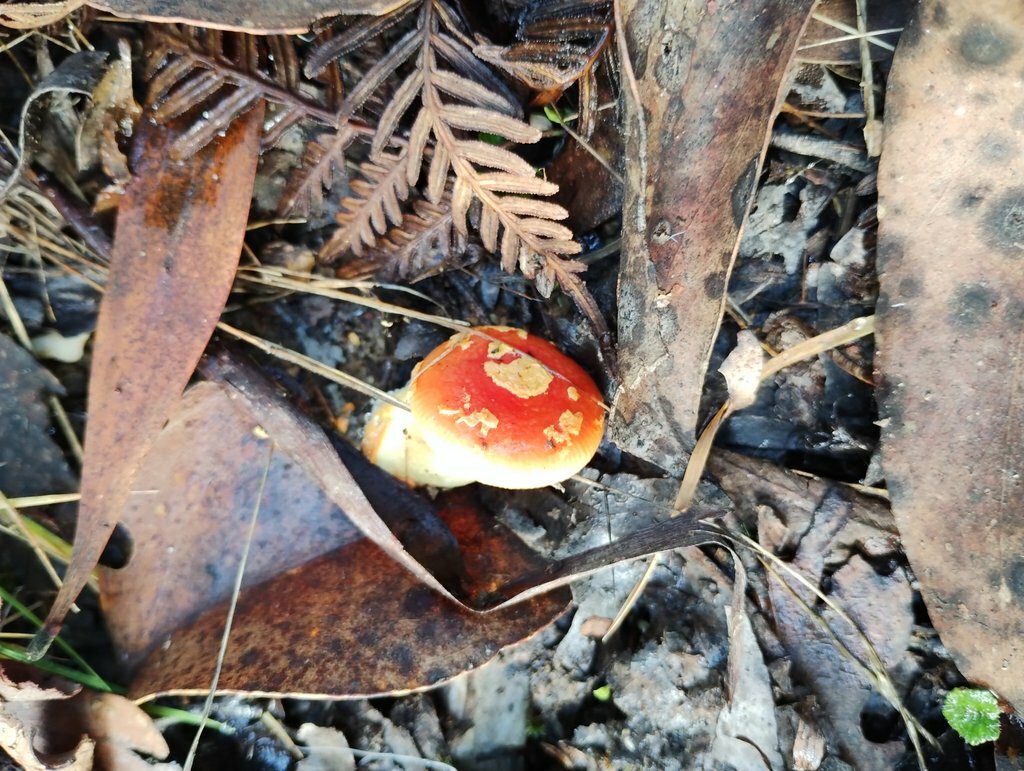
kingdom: Fungi
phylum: Basidiomycota
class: Agaricomycetes
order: Agaricales
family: Amanitaceae
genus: Amanita
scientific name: Amanita xanthocephala
